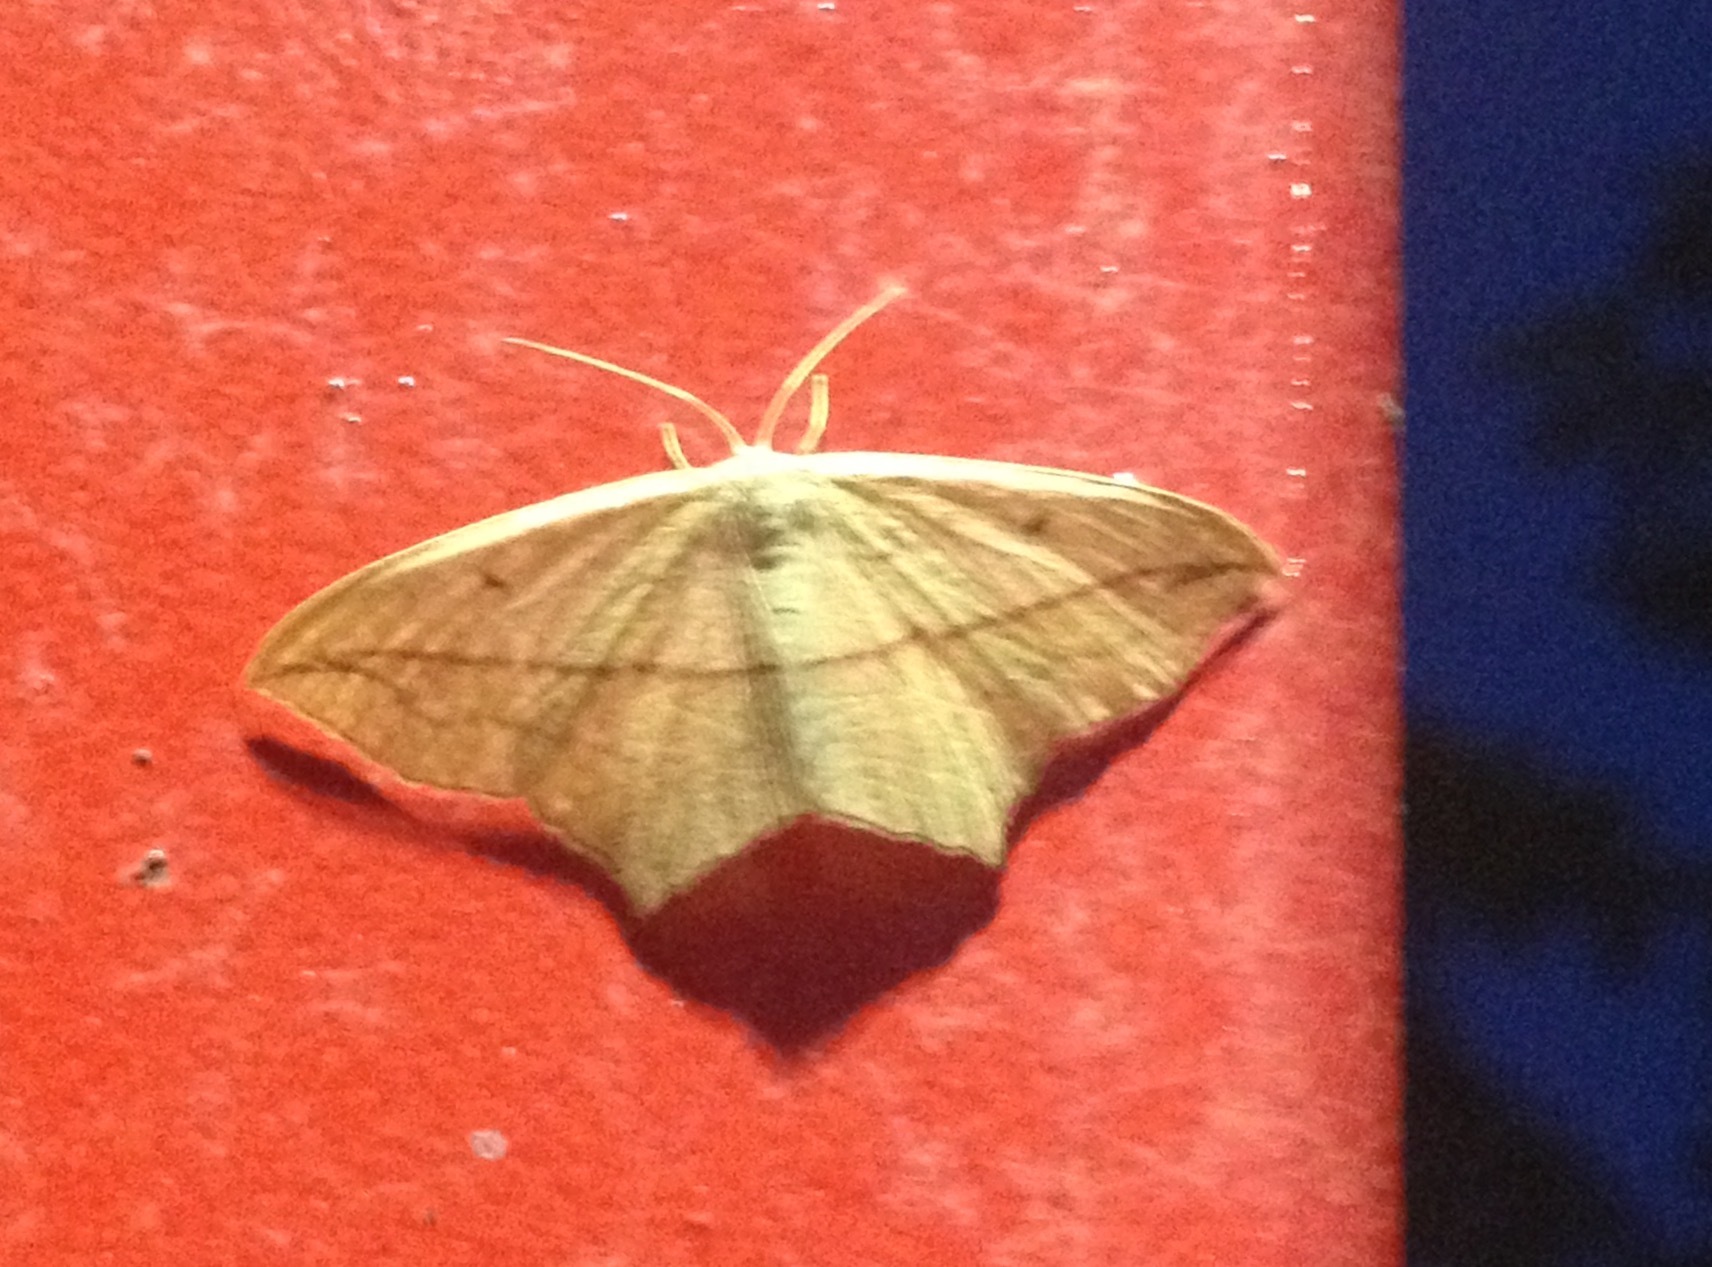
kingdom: Animalia
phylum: Arthropoda
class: Insecta
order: Lepidoptera
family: Geometridae
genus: Timandra
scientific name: Timandra comae
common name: Blood-vein
